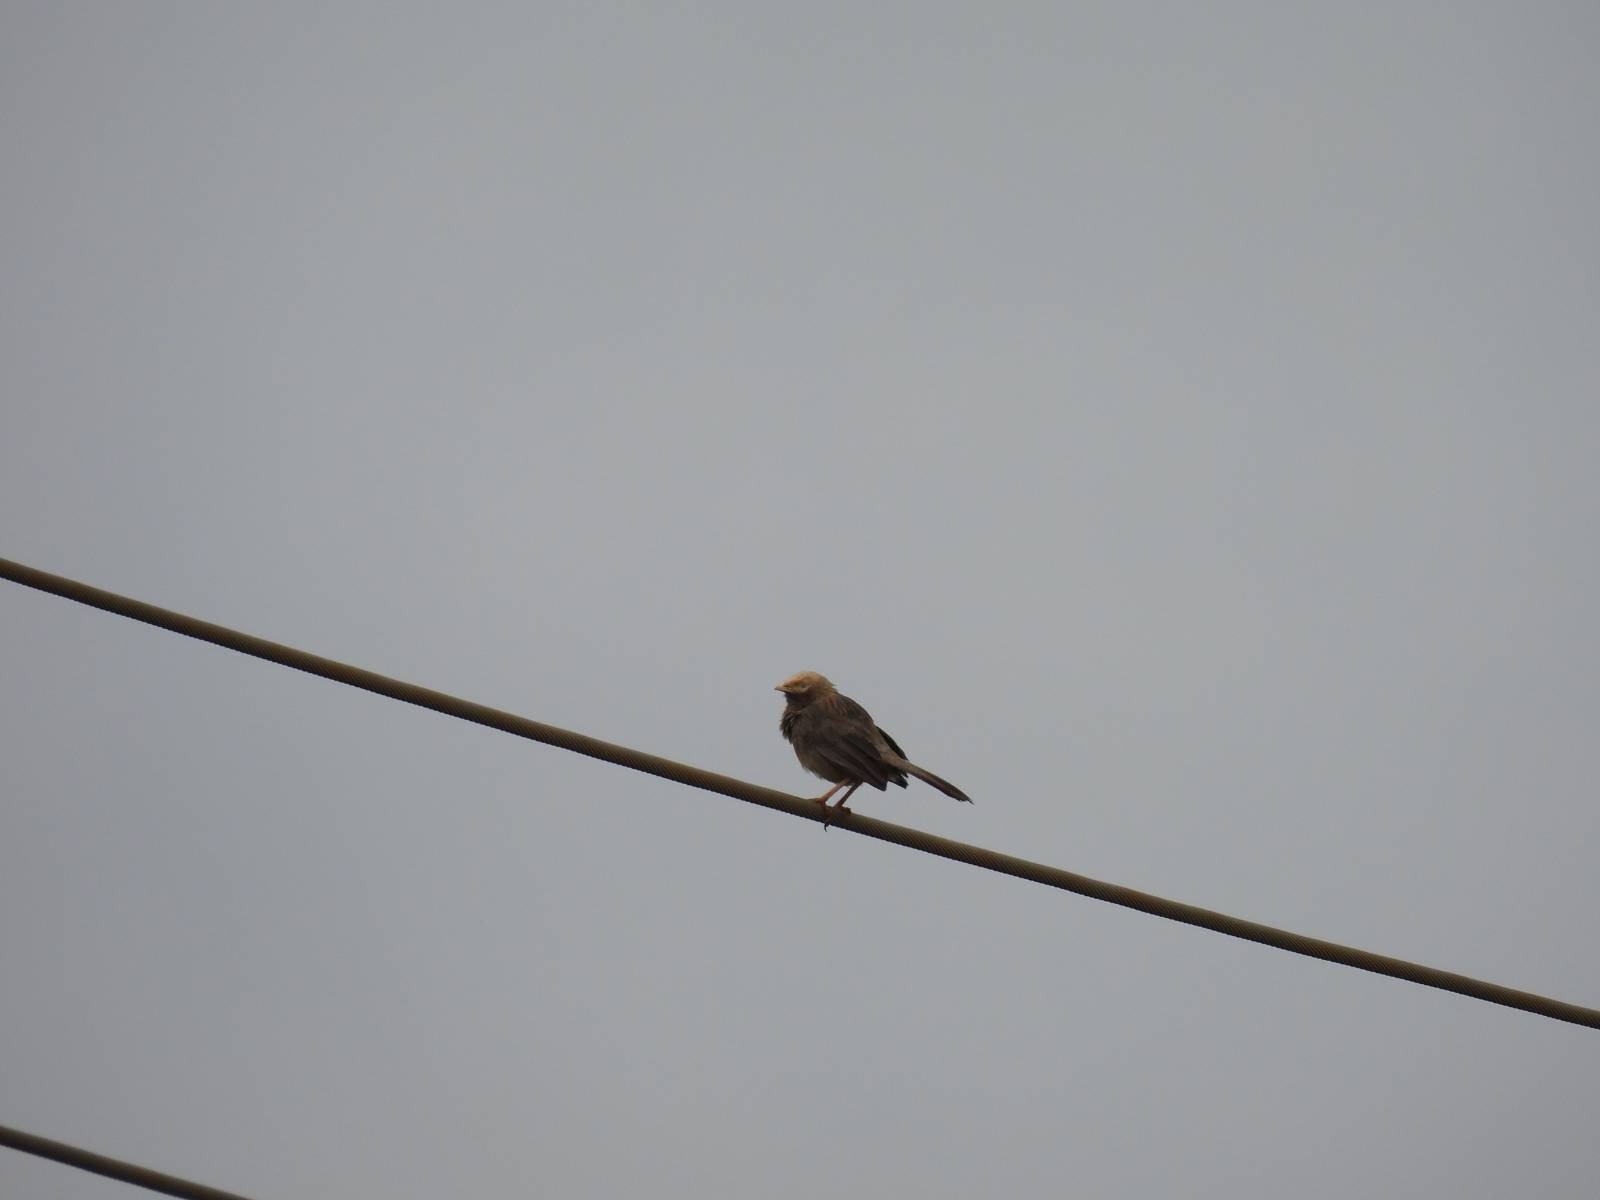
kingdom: Animalia
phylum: Chordata
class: Aves
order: Passeriformes
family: Leiothrichidae
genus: Turdoides
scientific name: Turdoides affinis
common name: Yellow-billed babbler
